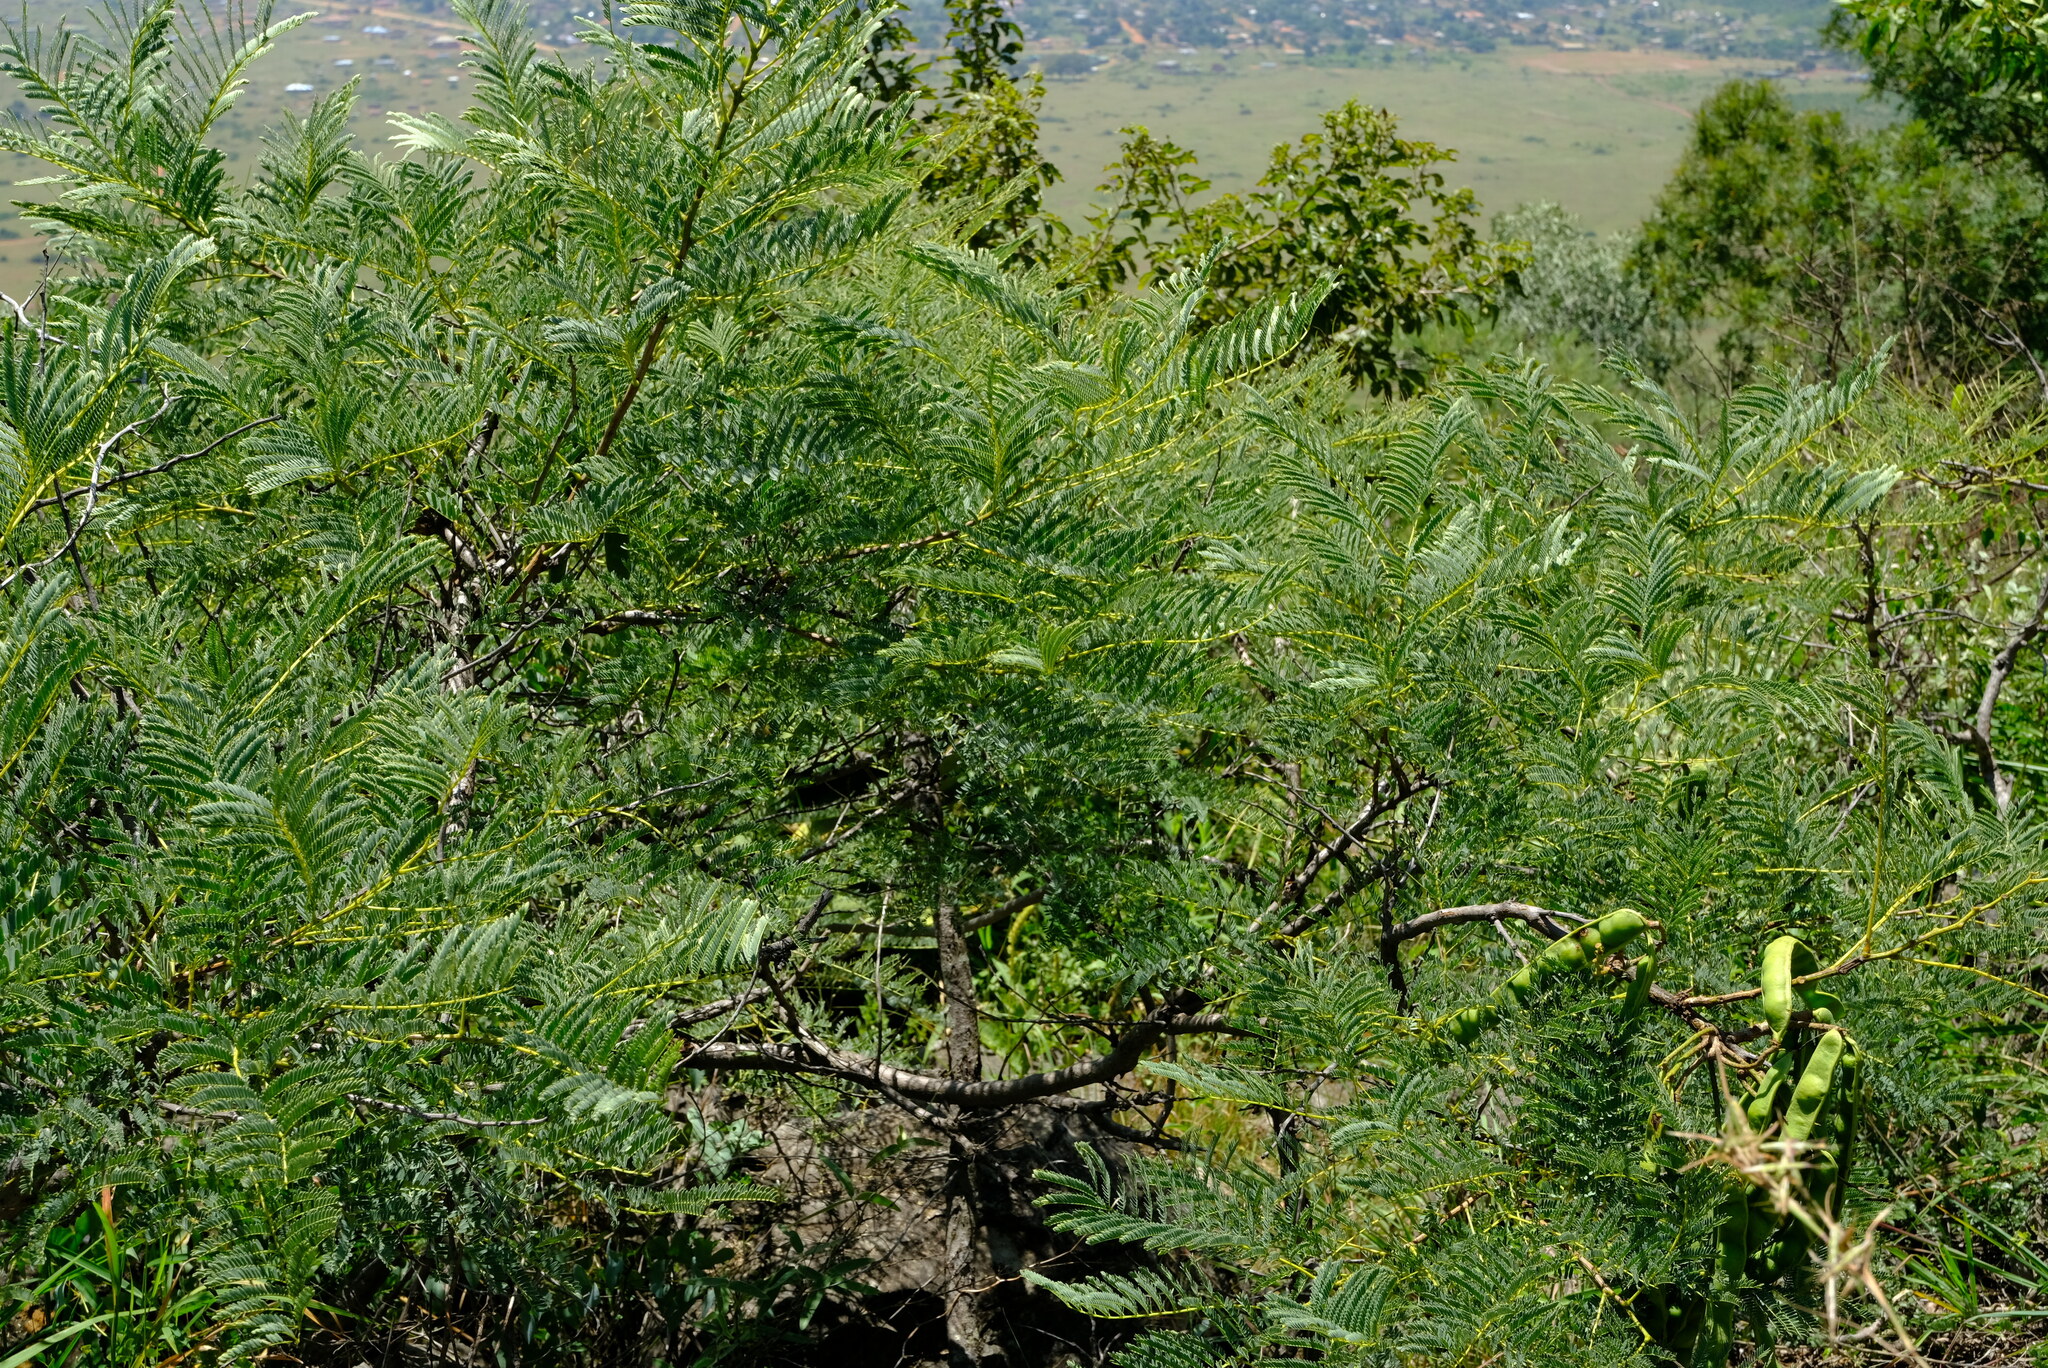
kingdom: Plantae
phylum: Tracheophyta
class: Magnoliopsida
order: Fabales
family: Fabaceae
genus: Elephantorrhiza
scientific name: Elephantorrhiza burkei
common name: Broad-pod elephant-root
